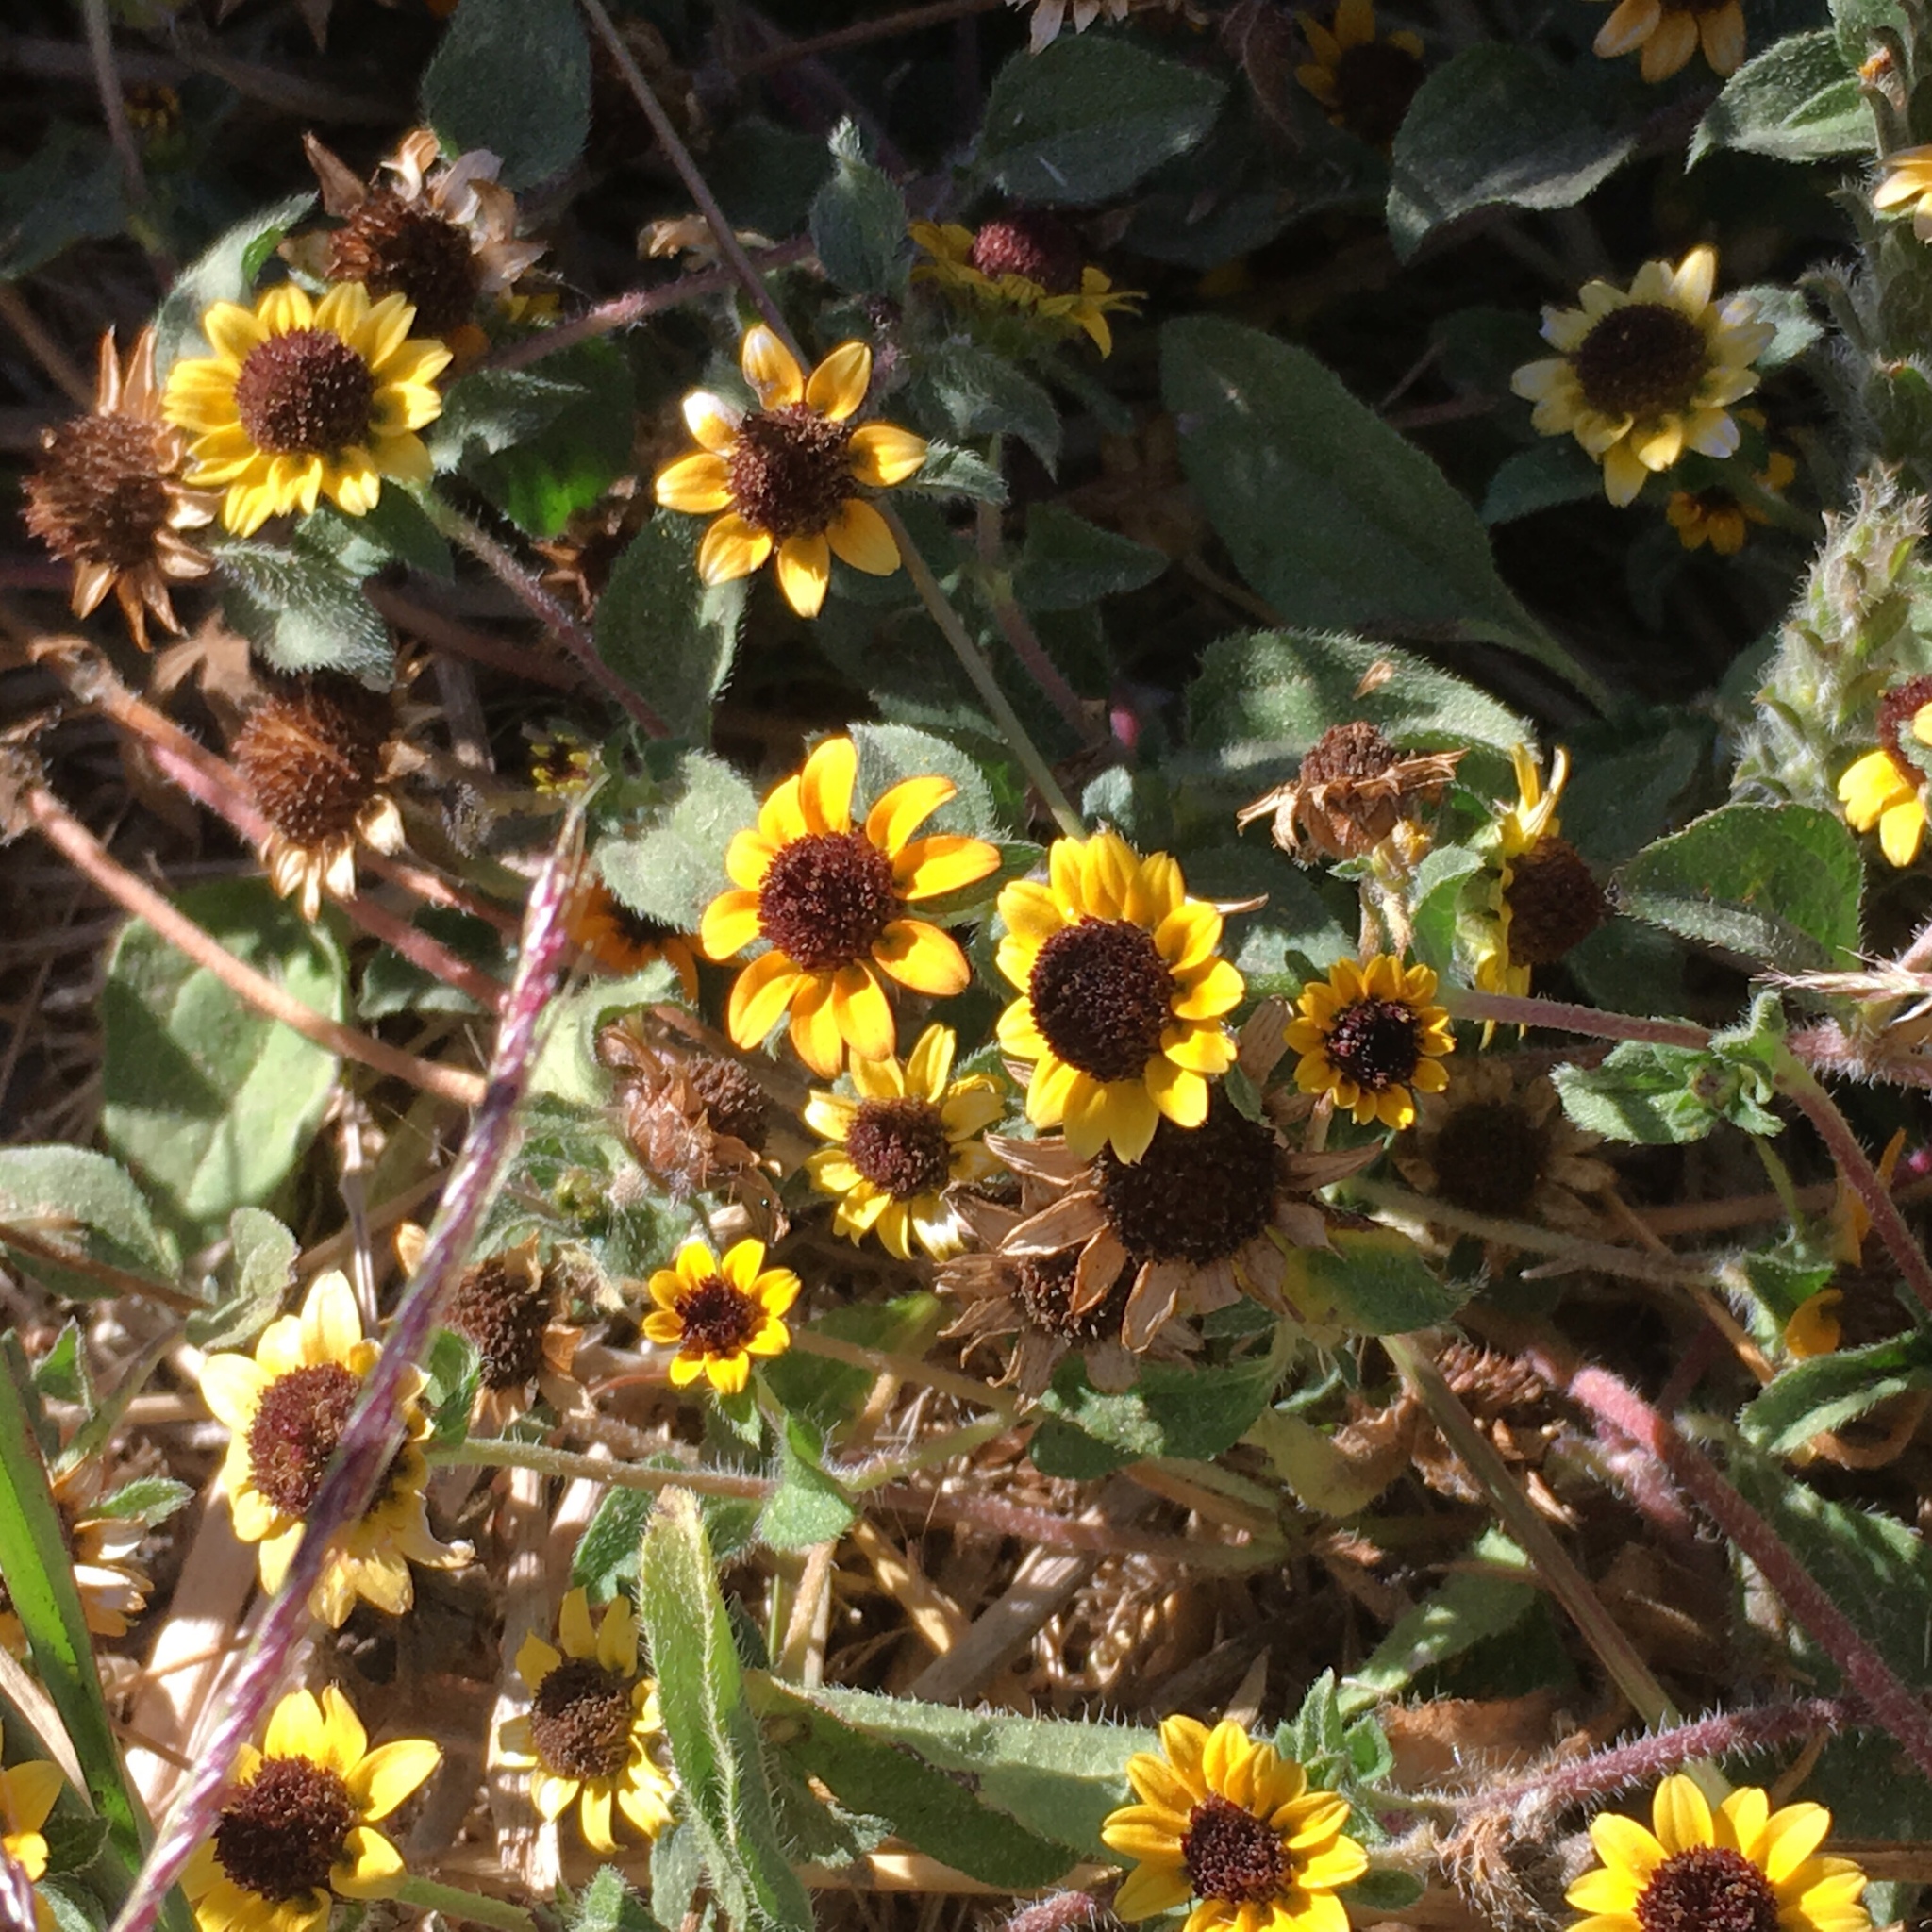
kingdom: Plantae
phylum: Tracheophyta
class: Magnoliopsida
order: Asterales
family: Asteraceae
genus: Sanvitalia
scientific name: Sanvitalia procumbens
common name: Mexican creeping zinnia
